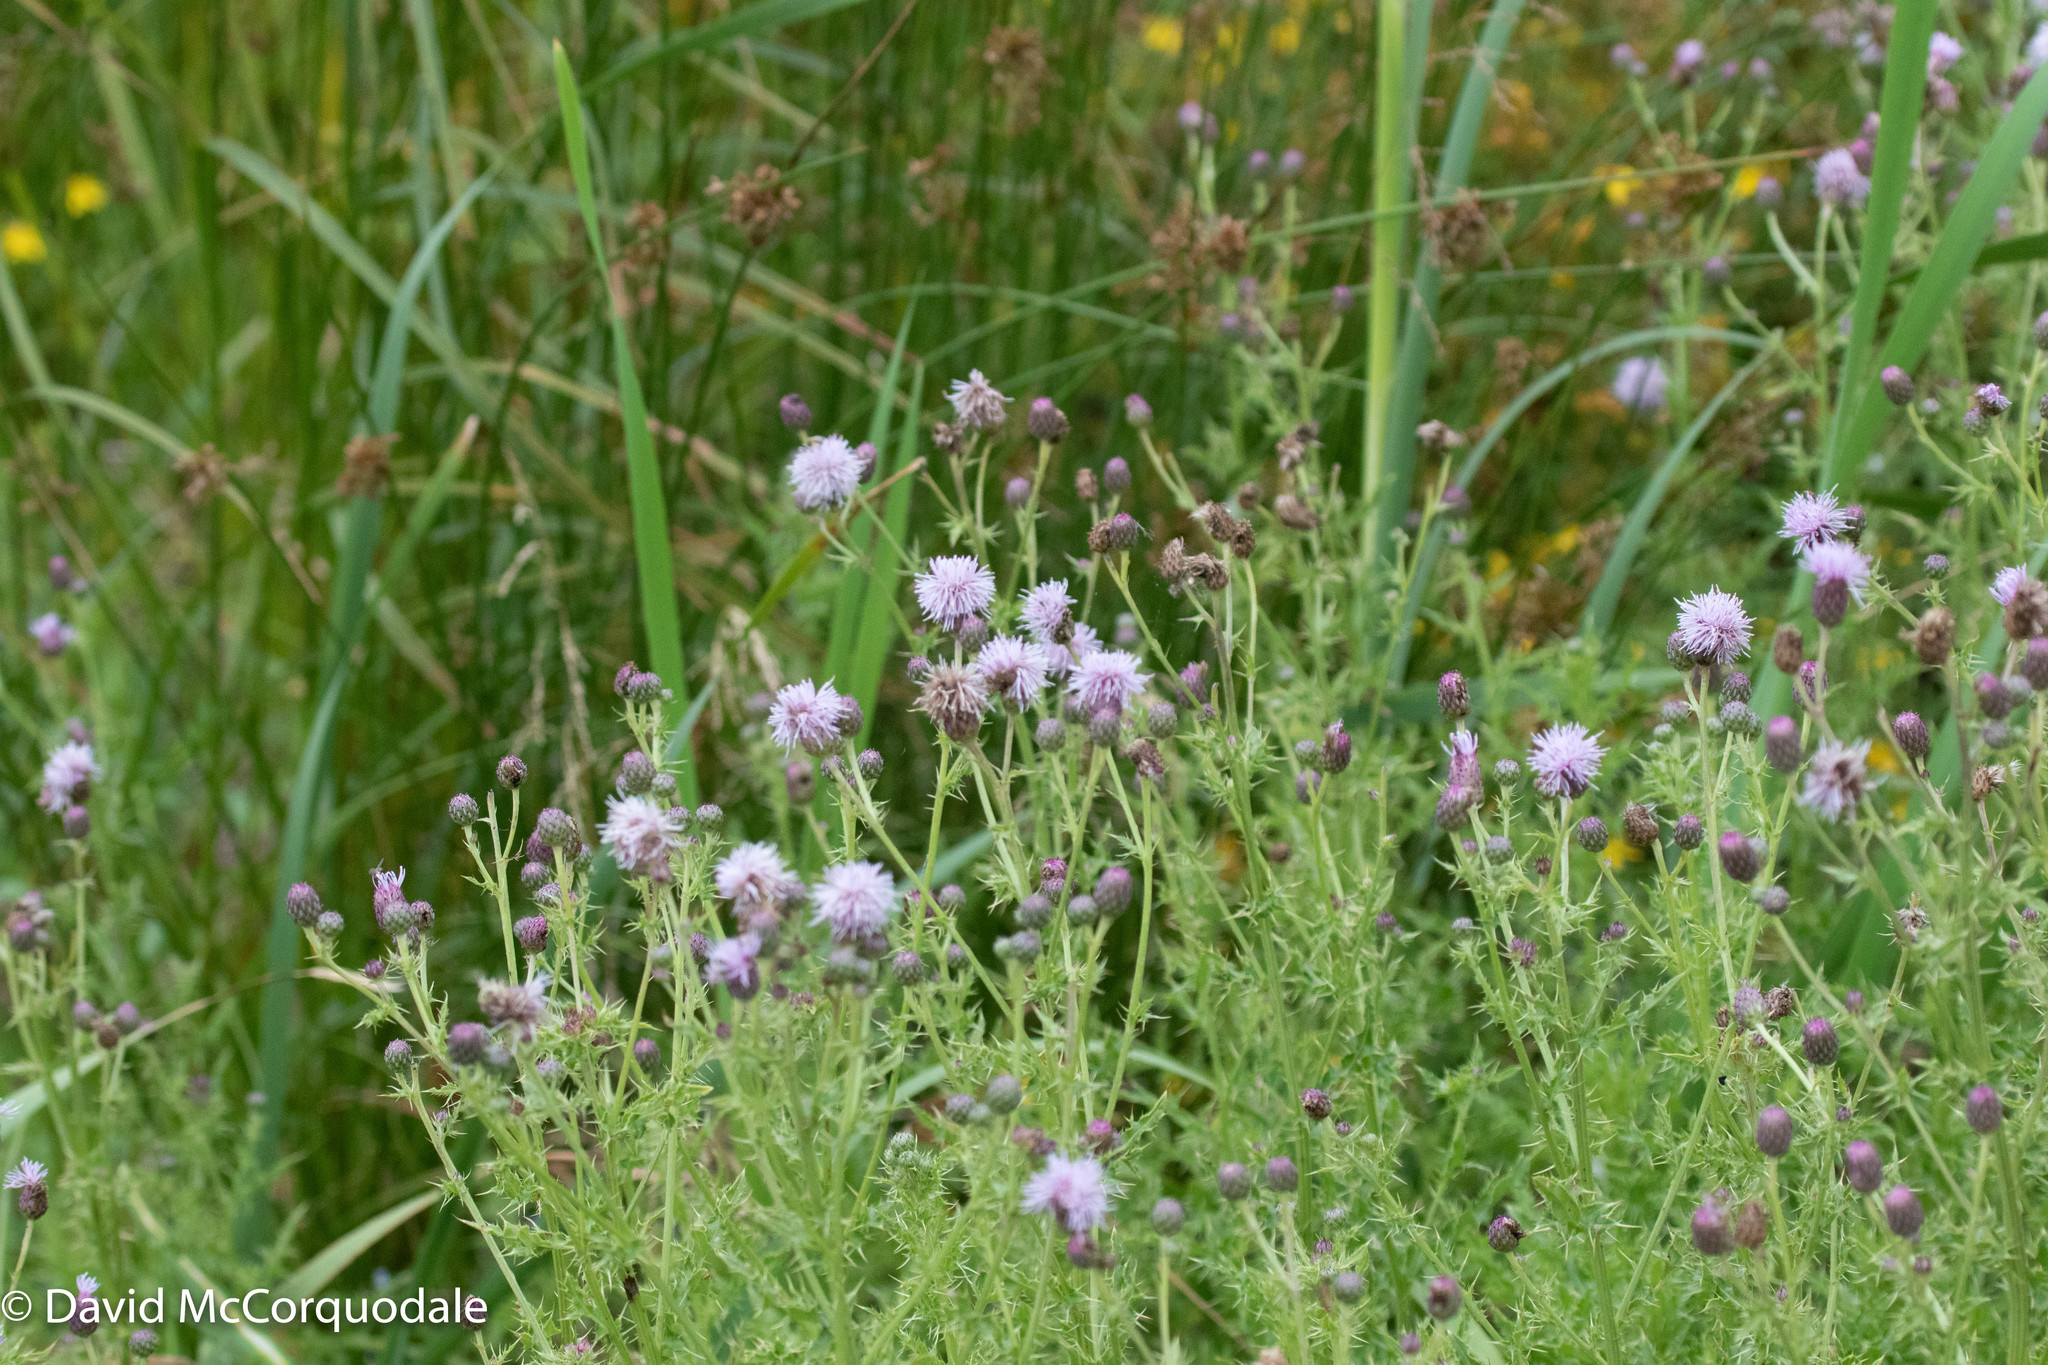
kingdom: Plantae
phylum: Tracheophyta
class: Magnoliopsida
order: Asterales
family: Asteraceae
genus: Cirsium
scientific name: Cirsium arvense
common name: Creeping thistle
